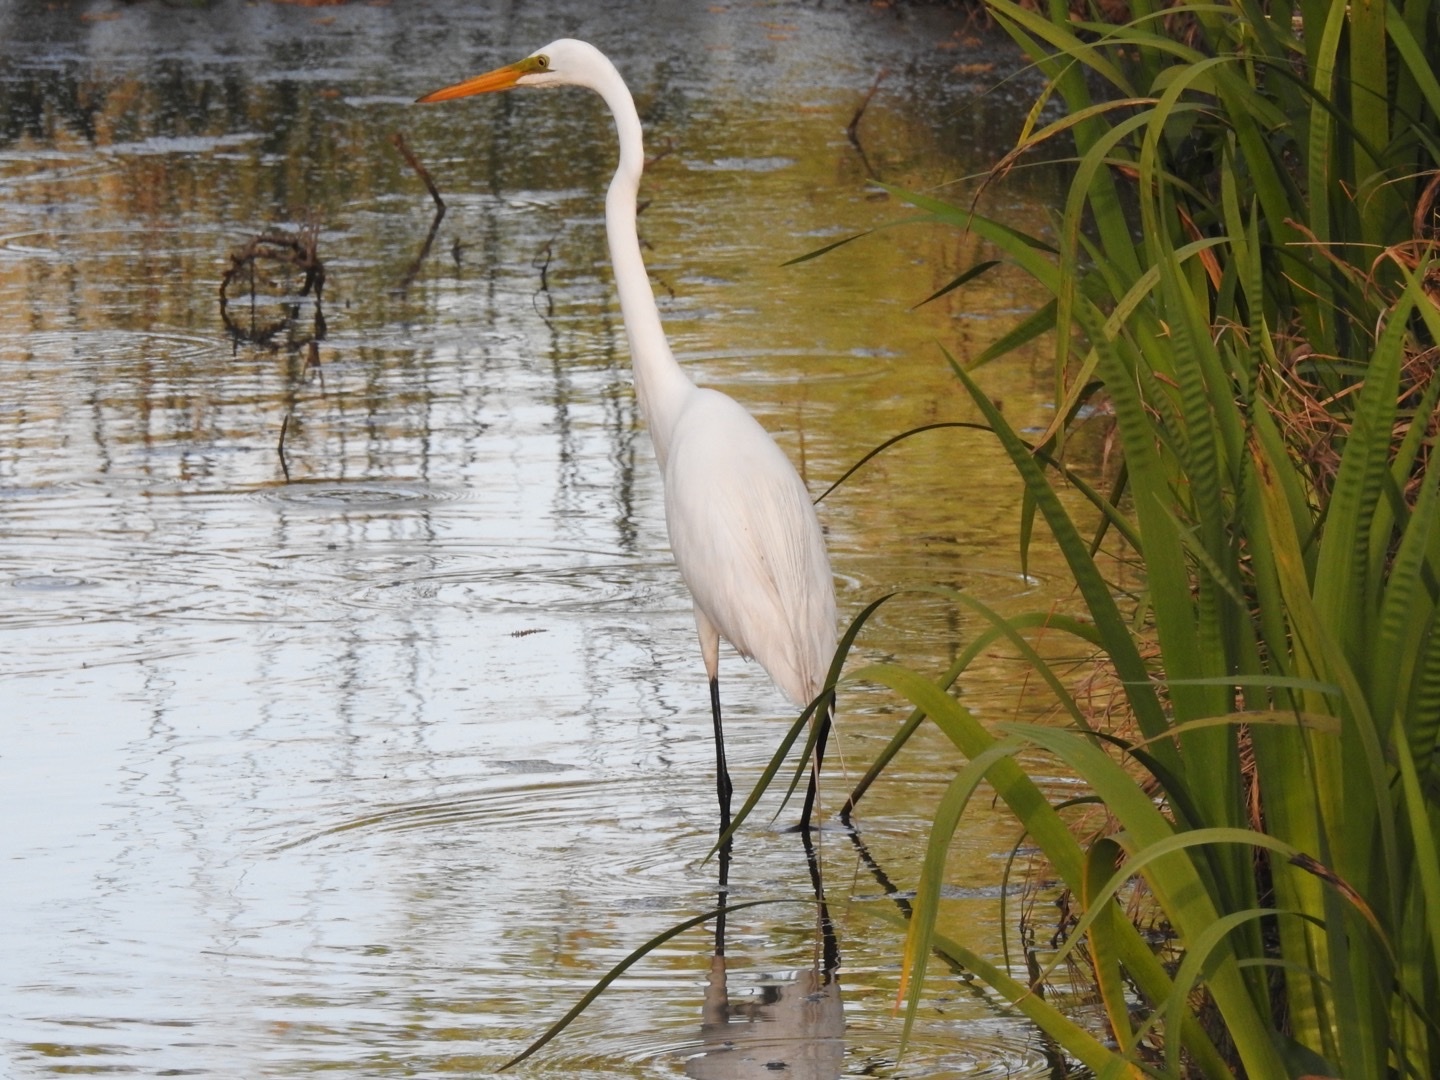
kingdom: Animalia
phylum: Chordata
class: Aves
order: Pelecaniformes
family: Ardeidae
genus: Ardea
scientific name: Ardea alba
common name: Great egret
